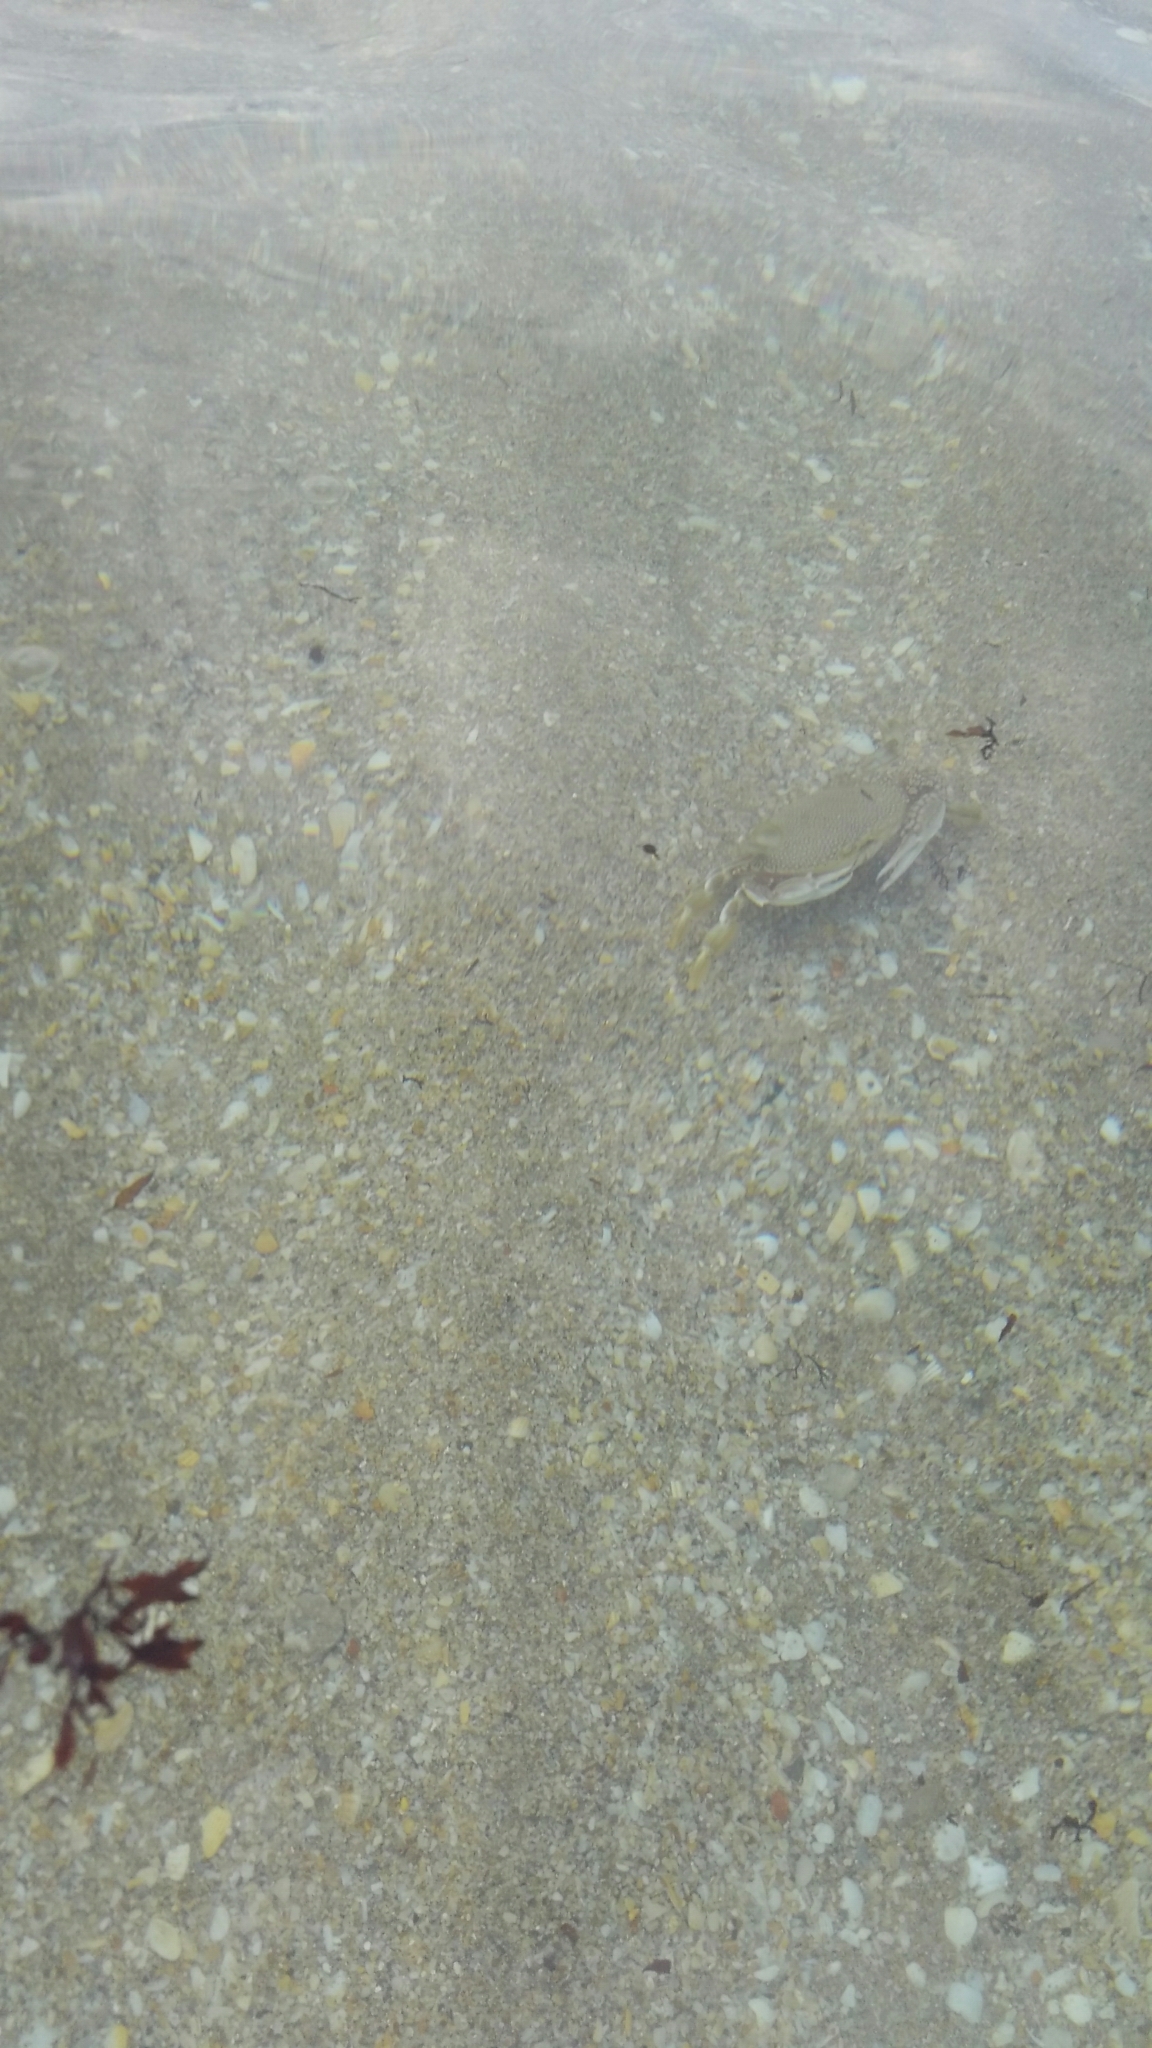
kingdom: Animalia
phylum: Arthropoda
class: Malacostraca
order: Decapoda
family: Portunidae
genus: Arenaeus
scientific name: Arenaeus cribrarius
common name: Speckled crab
